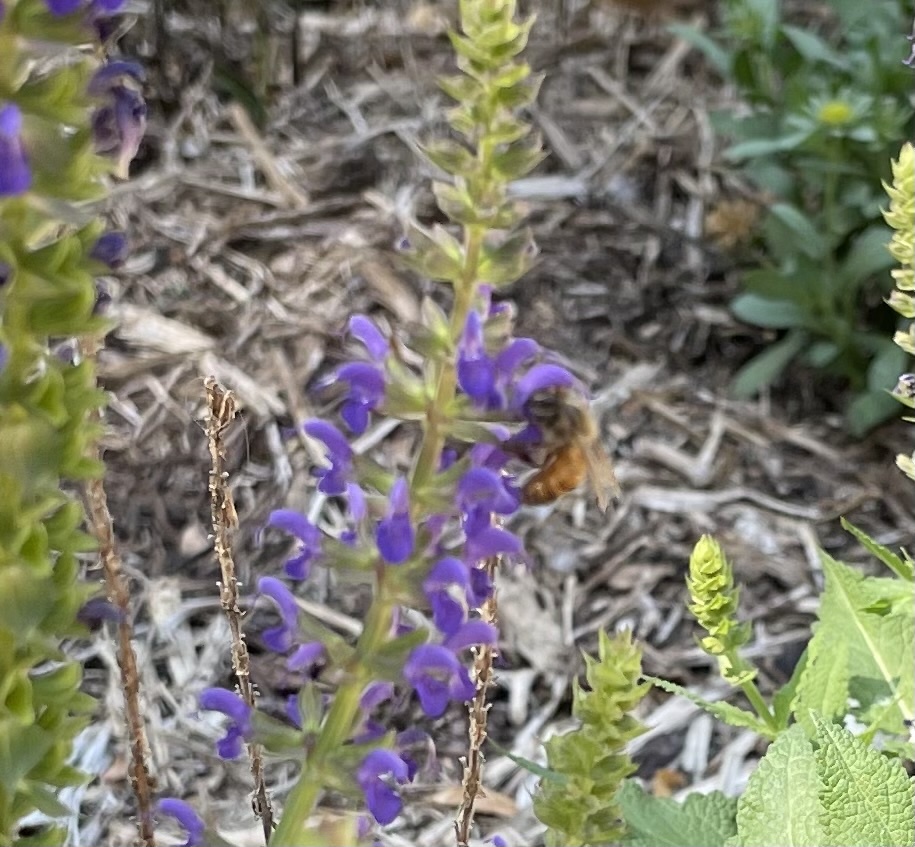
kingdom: Animalia
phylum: Arthropoda
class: Insecta
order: Hymenoptera
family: Apidae
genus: Apis
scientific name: Apis mellifera
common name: Honey bee
